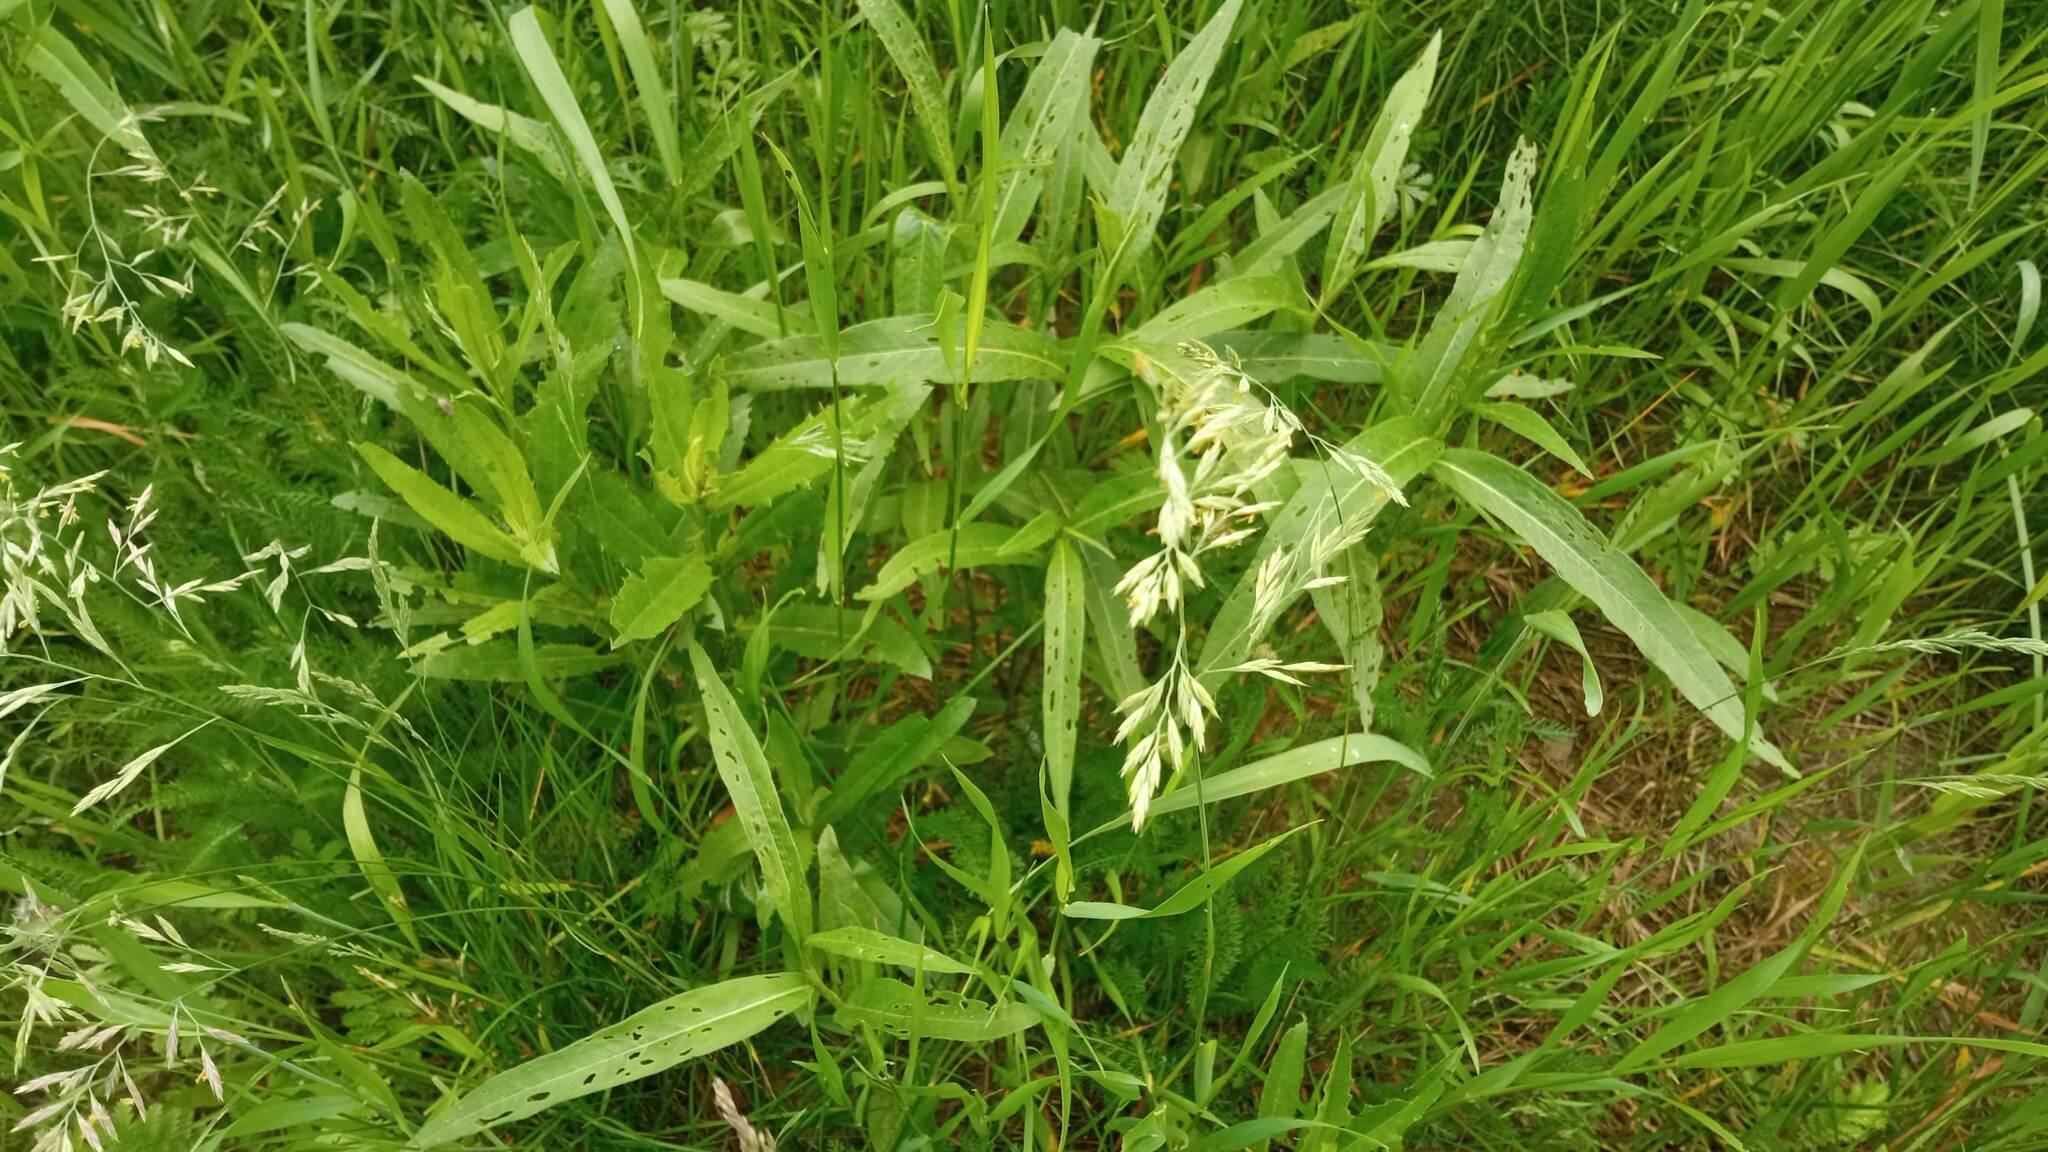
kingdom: Plantae
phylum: Tracheophyta
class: Magnoliopsida
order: Caryophyllales
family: Polygonaceae
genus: Persicaria
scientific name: Persicaria amphibia
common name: Amphibious bistort
